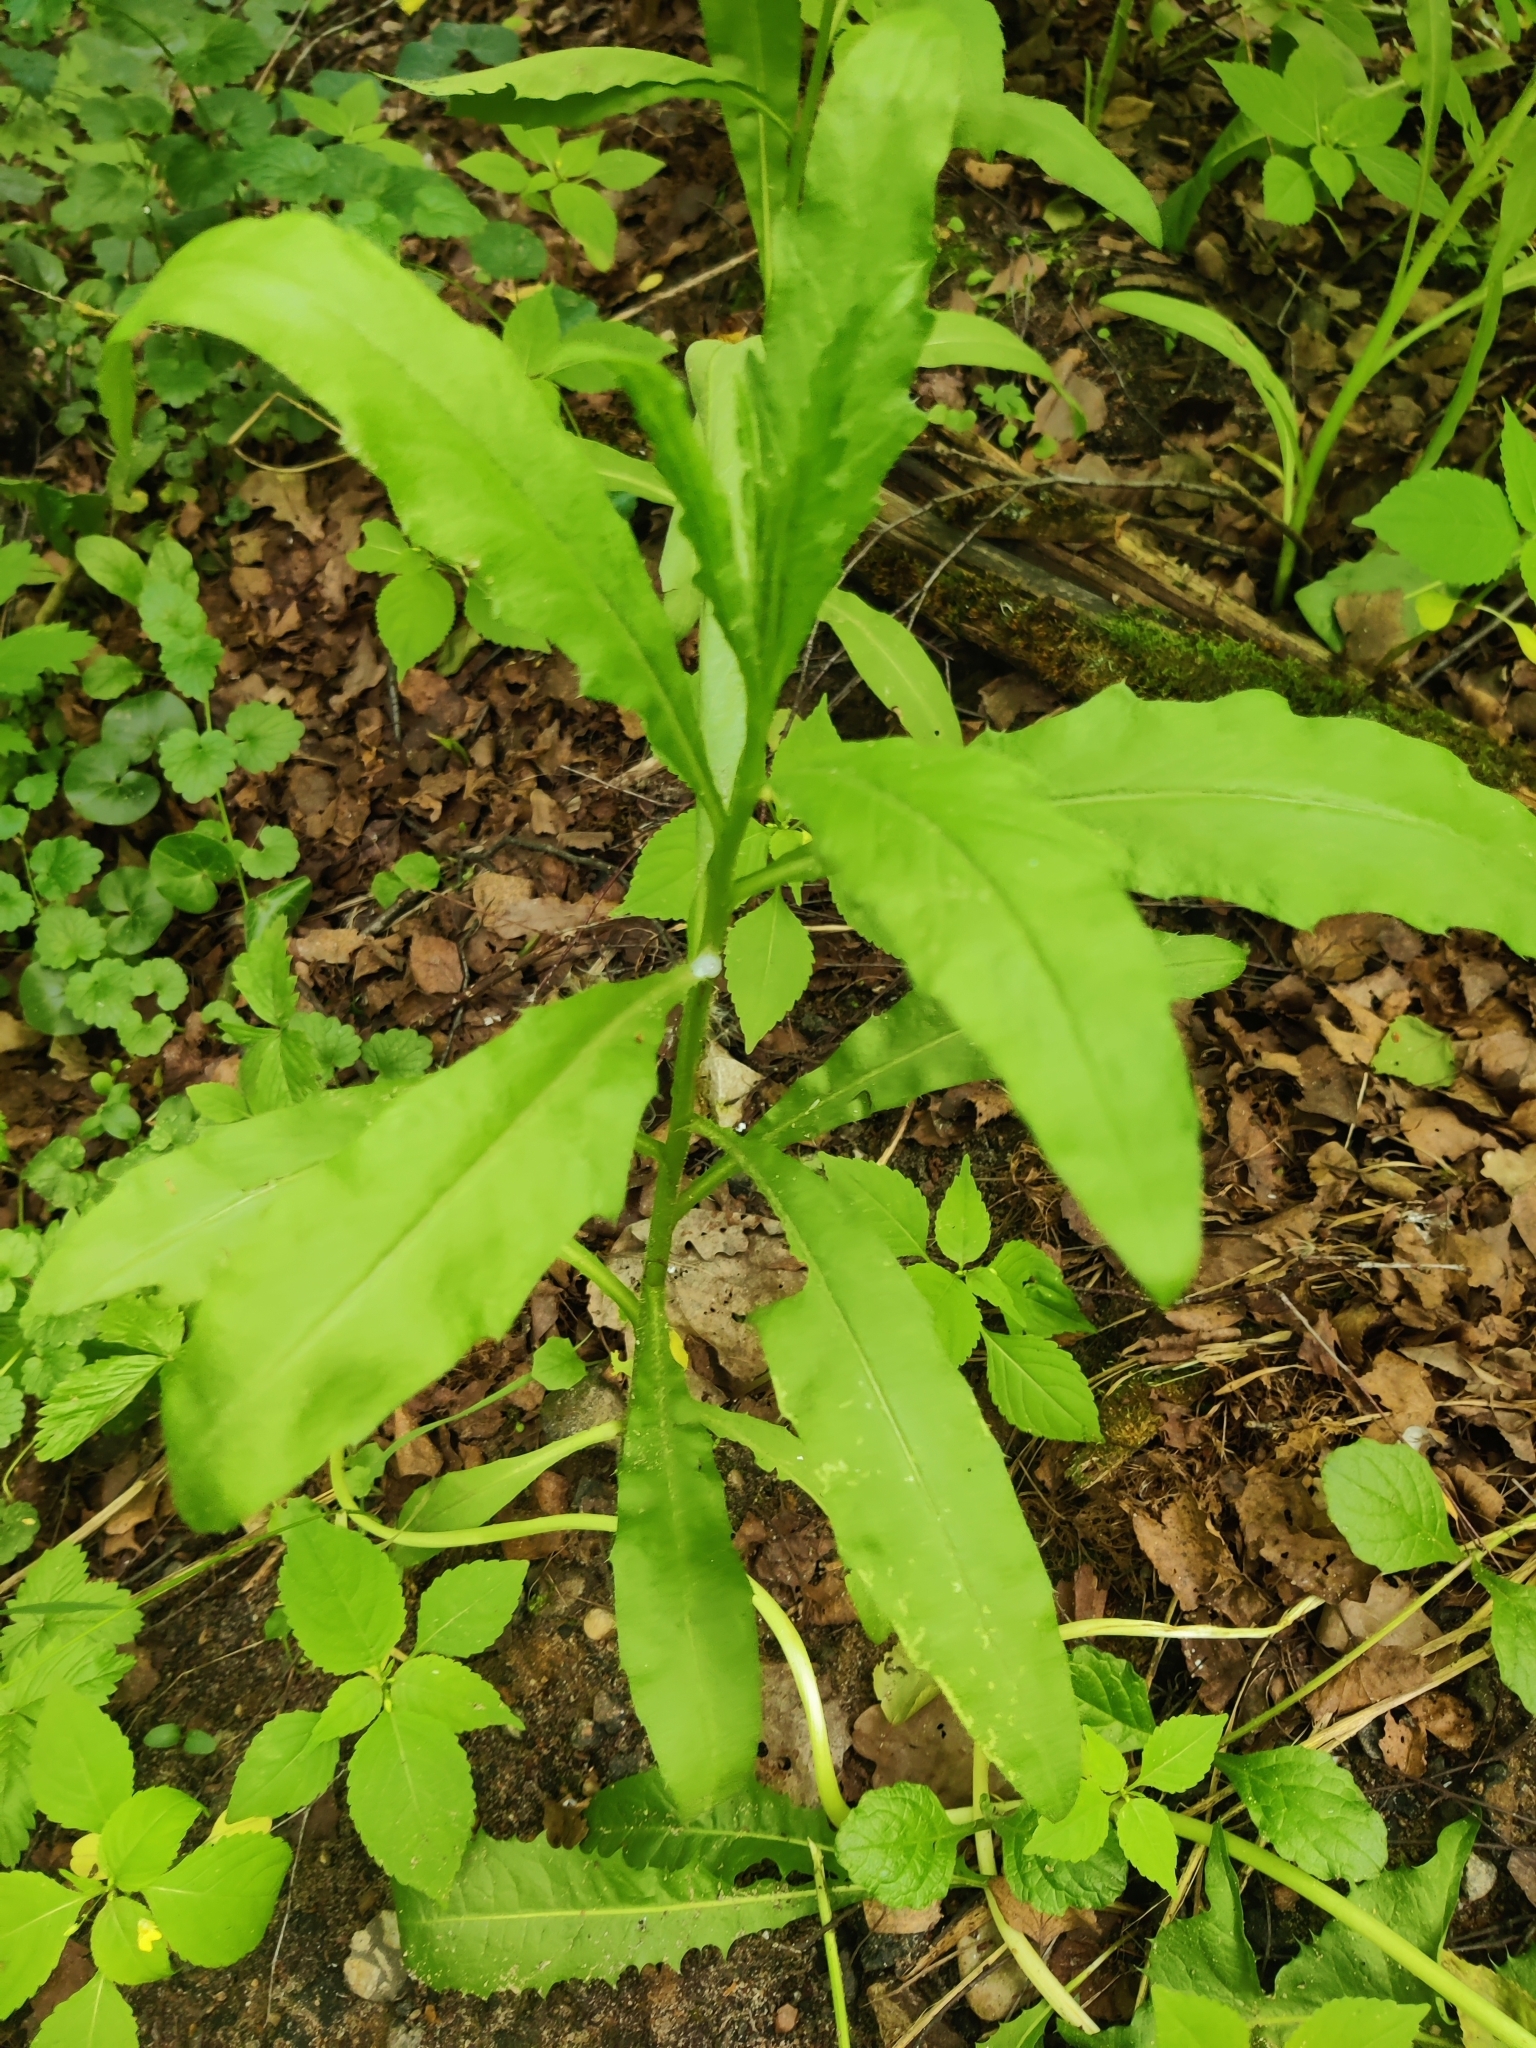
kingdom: Plantae
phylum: Tracheophyta
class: Magnoliopsida
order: Asterales
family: Asteraceae
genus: Cirsium
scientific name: Cirsium arvense
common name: Creeping thistle
